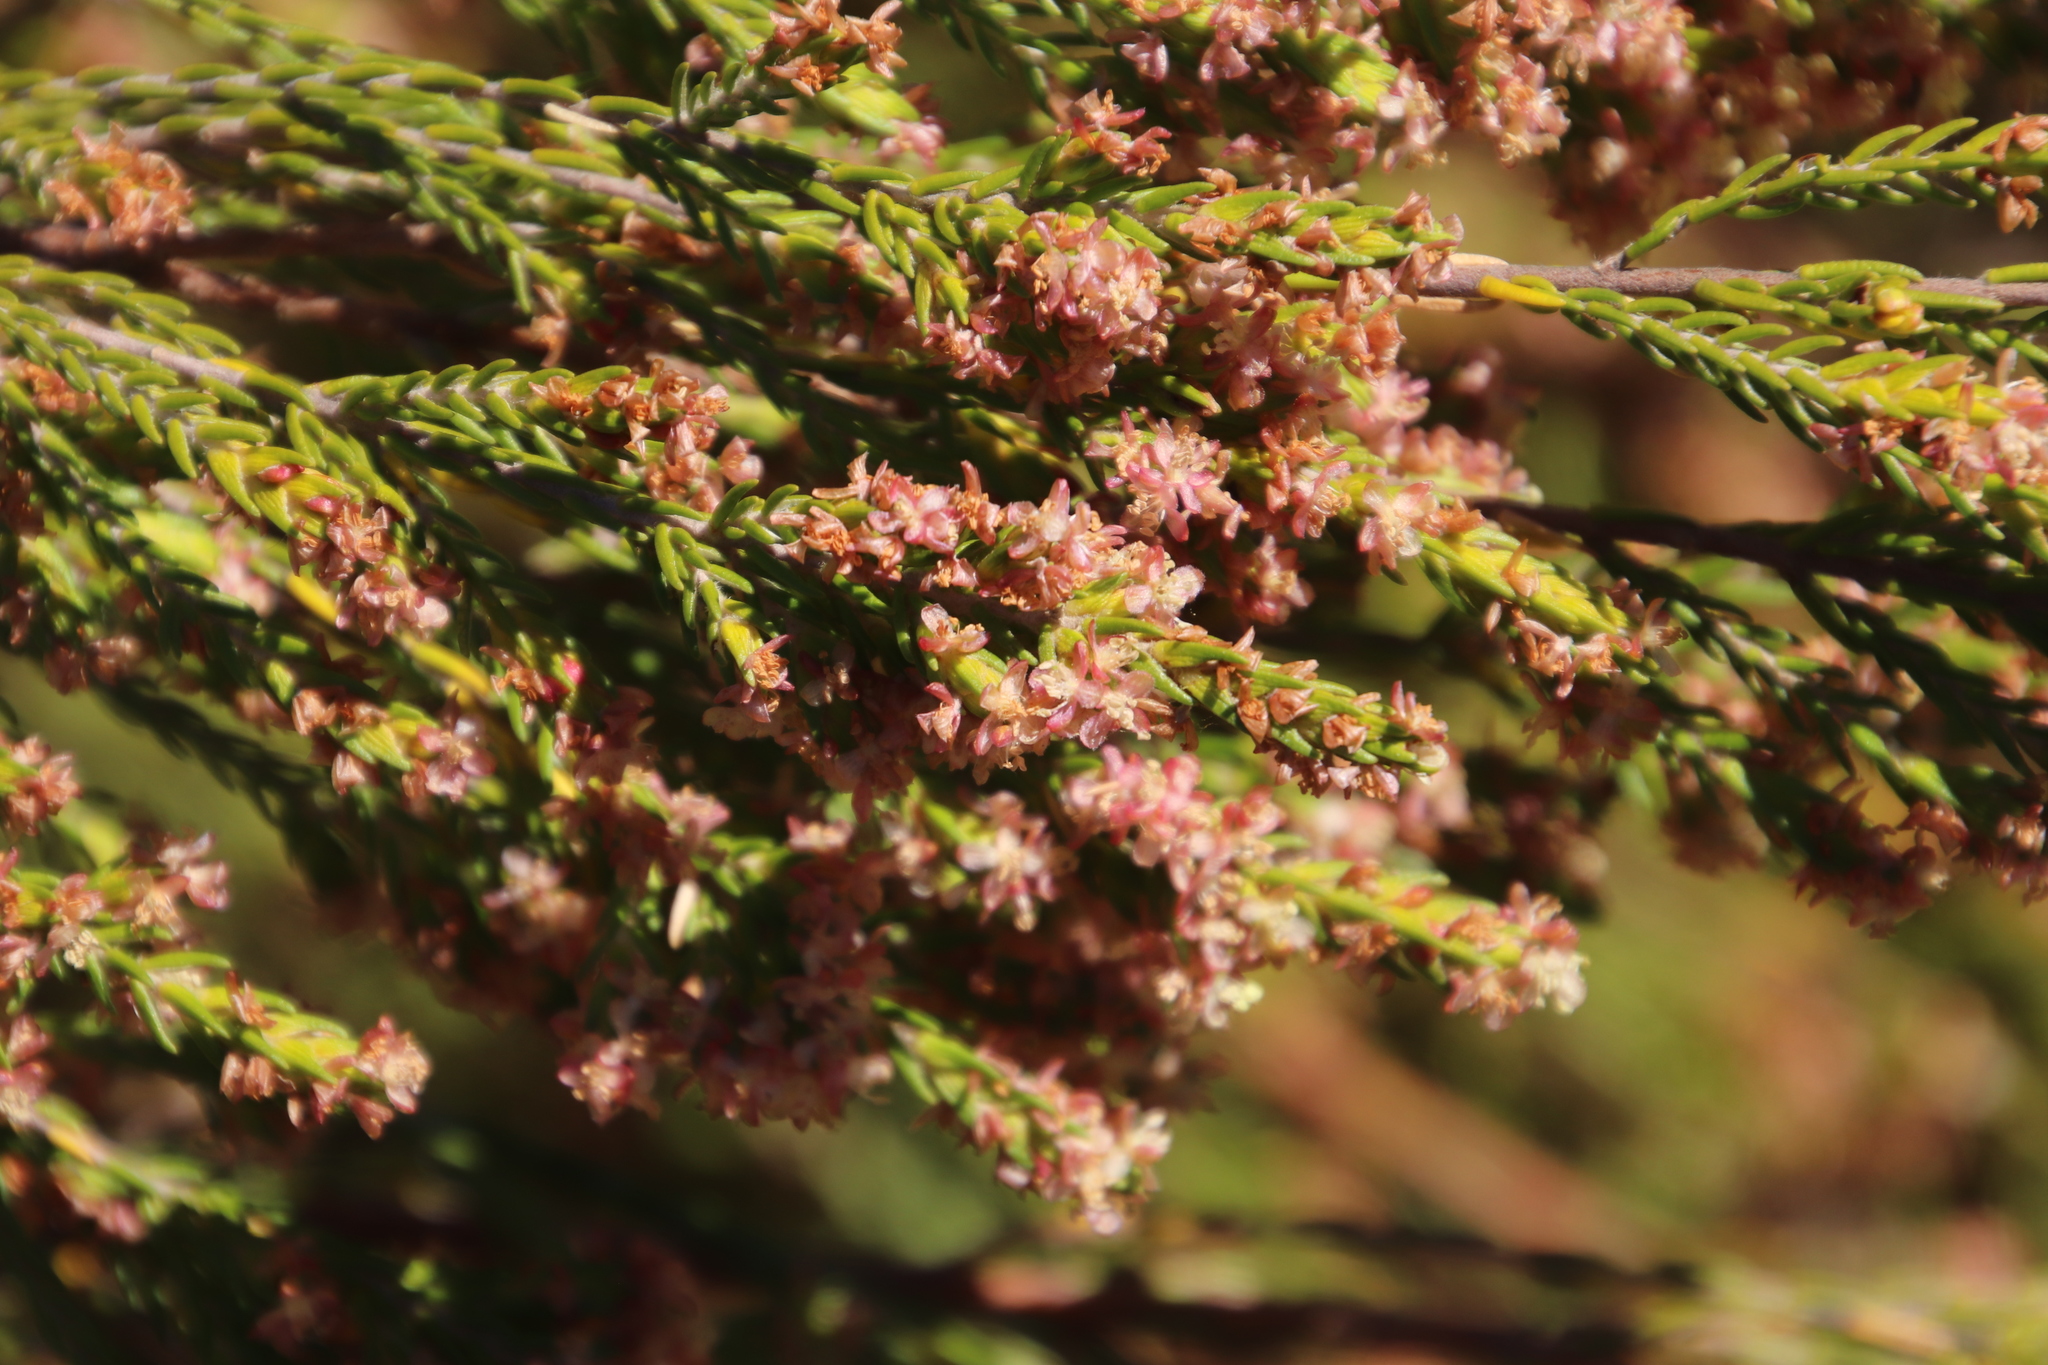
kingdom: Plantae
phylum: Tracheophyta
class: Magnoliopsida
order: Malvales
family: Thymelaeaceae
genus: Passerina
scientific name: Passerina corymbosa
